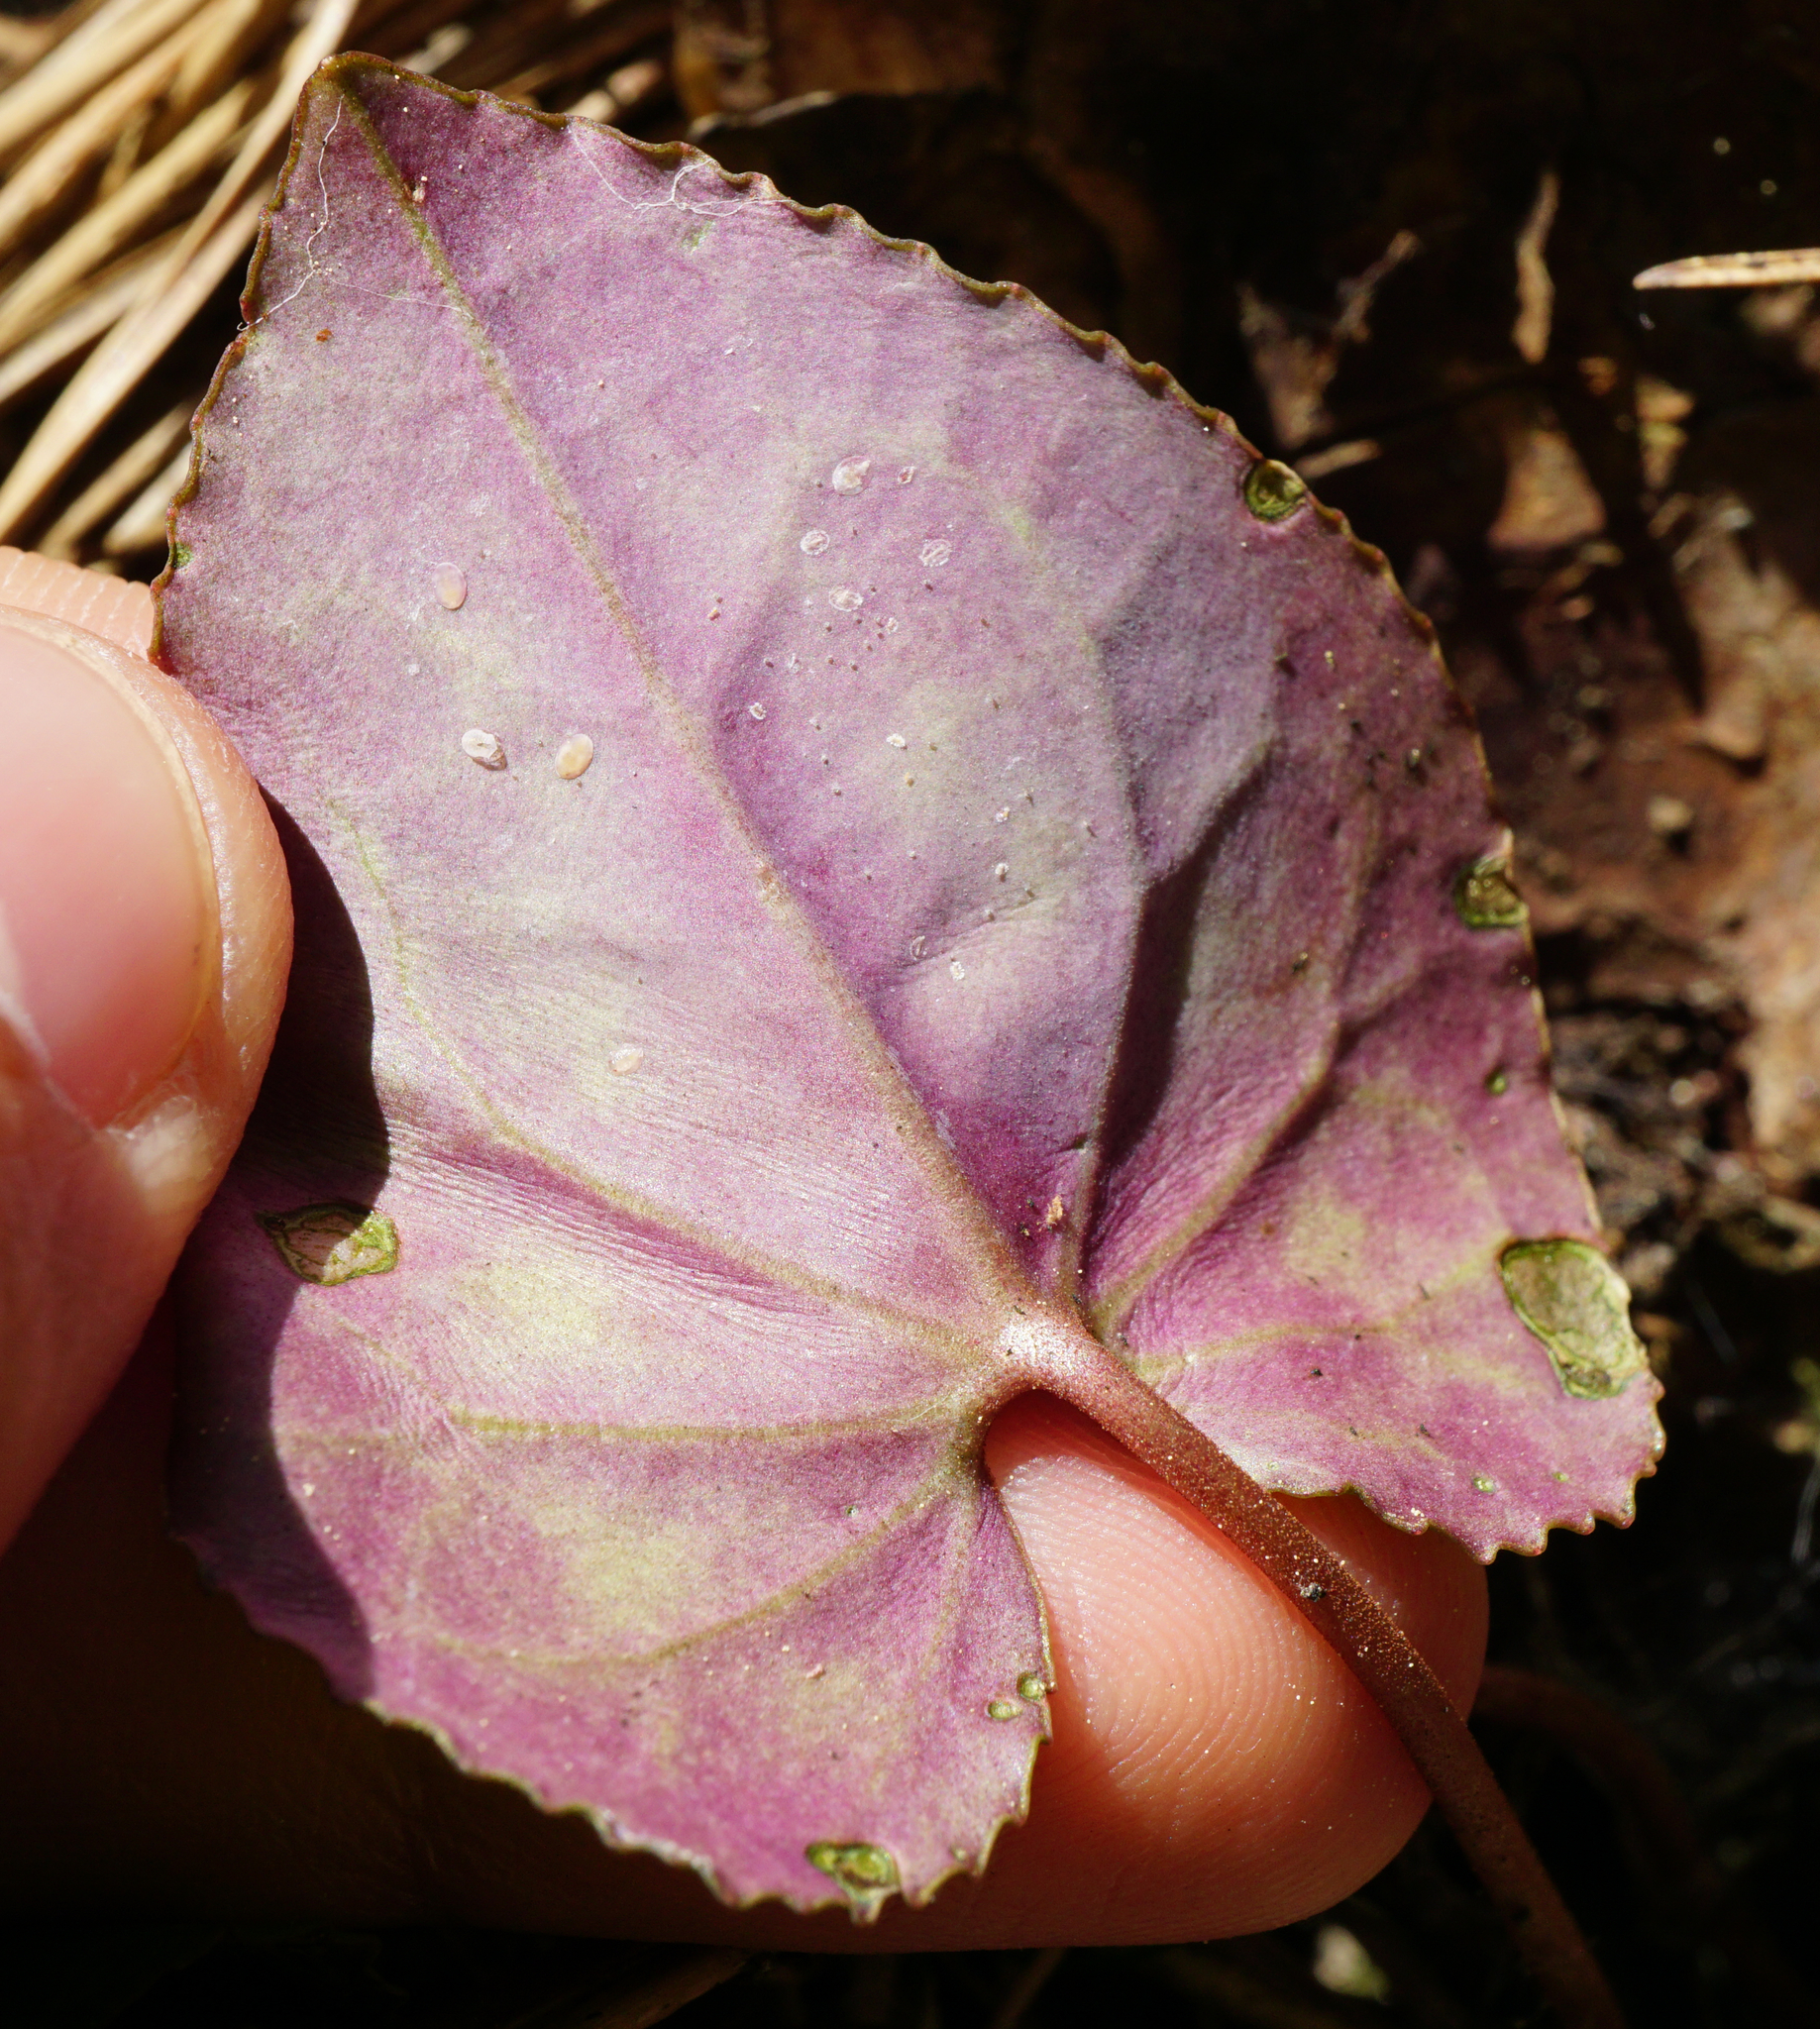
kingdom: Plantae
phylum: Tracheophyta
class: Magnoliopsida
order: Ericales
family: Primulaceae
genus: Cyclamen
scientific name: Cyclamen purpurascens
